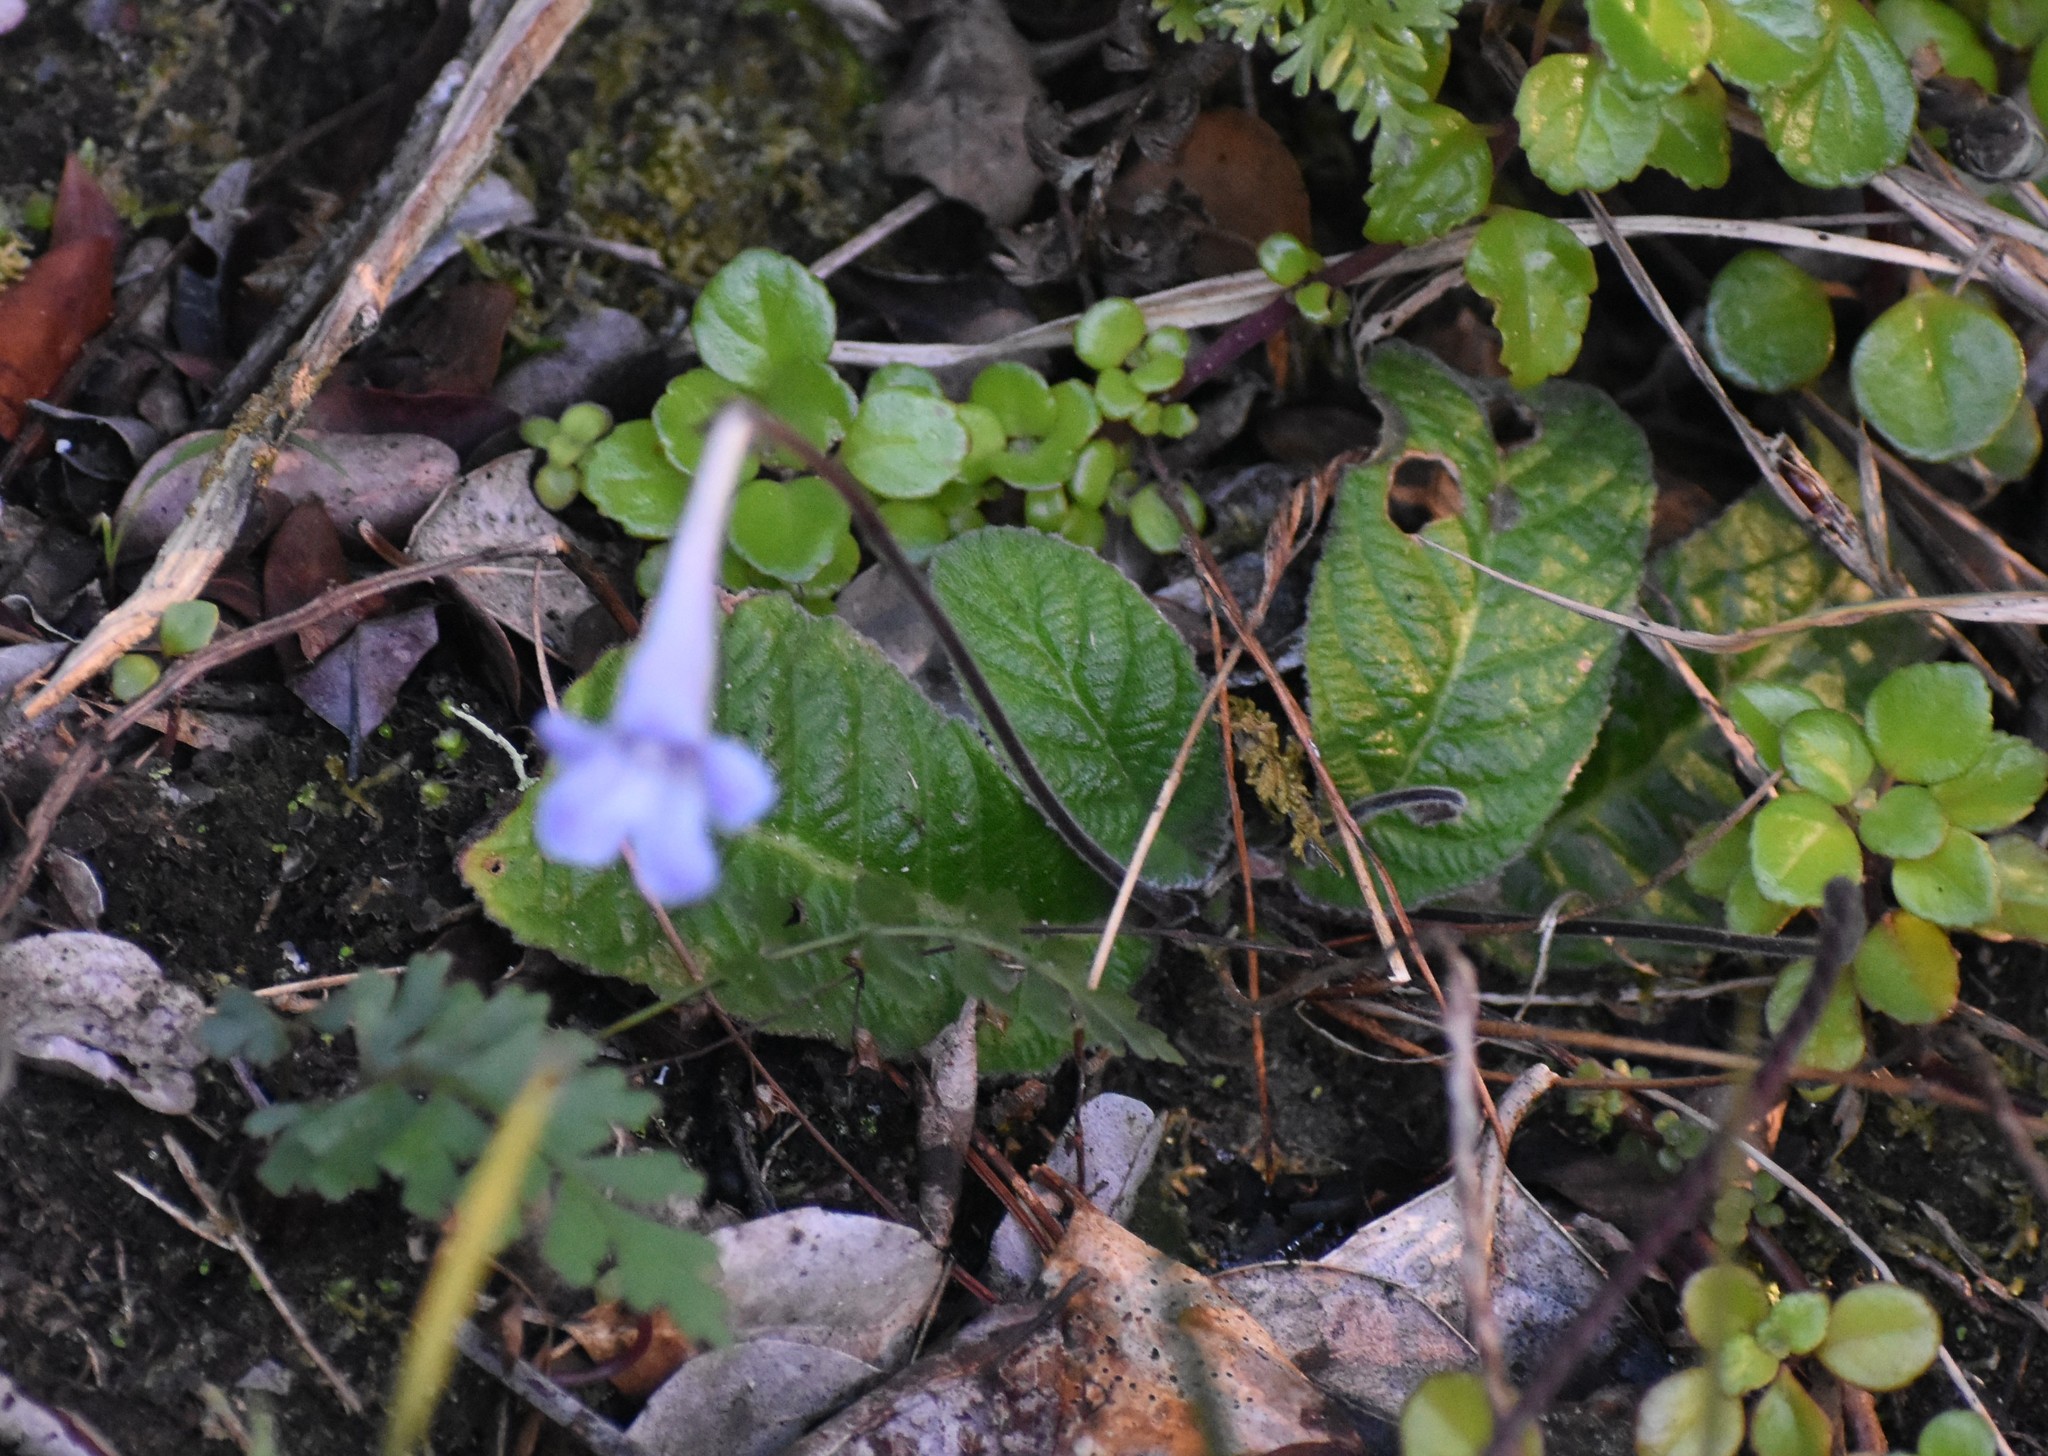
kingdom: Plantae
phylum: Tracheophyta
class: Magnoliopsida
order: Lamiales
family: Gesneriaceae
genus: Streptocarpus
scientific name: Streptocarpus rexii
